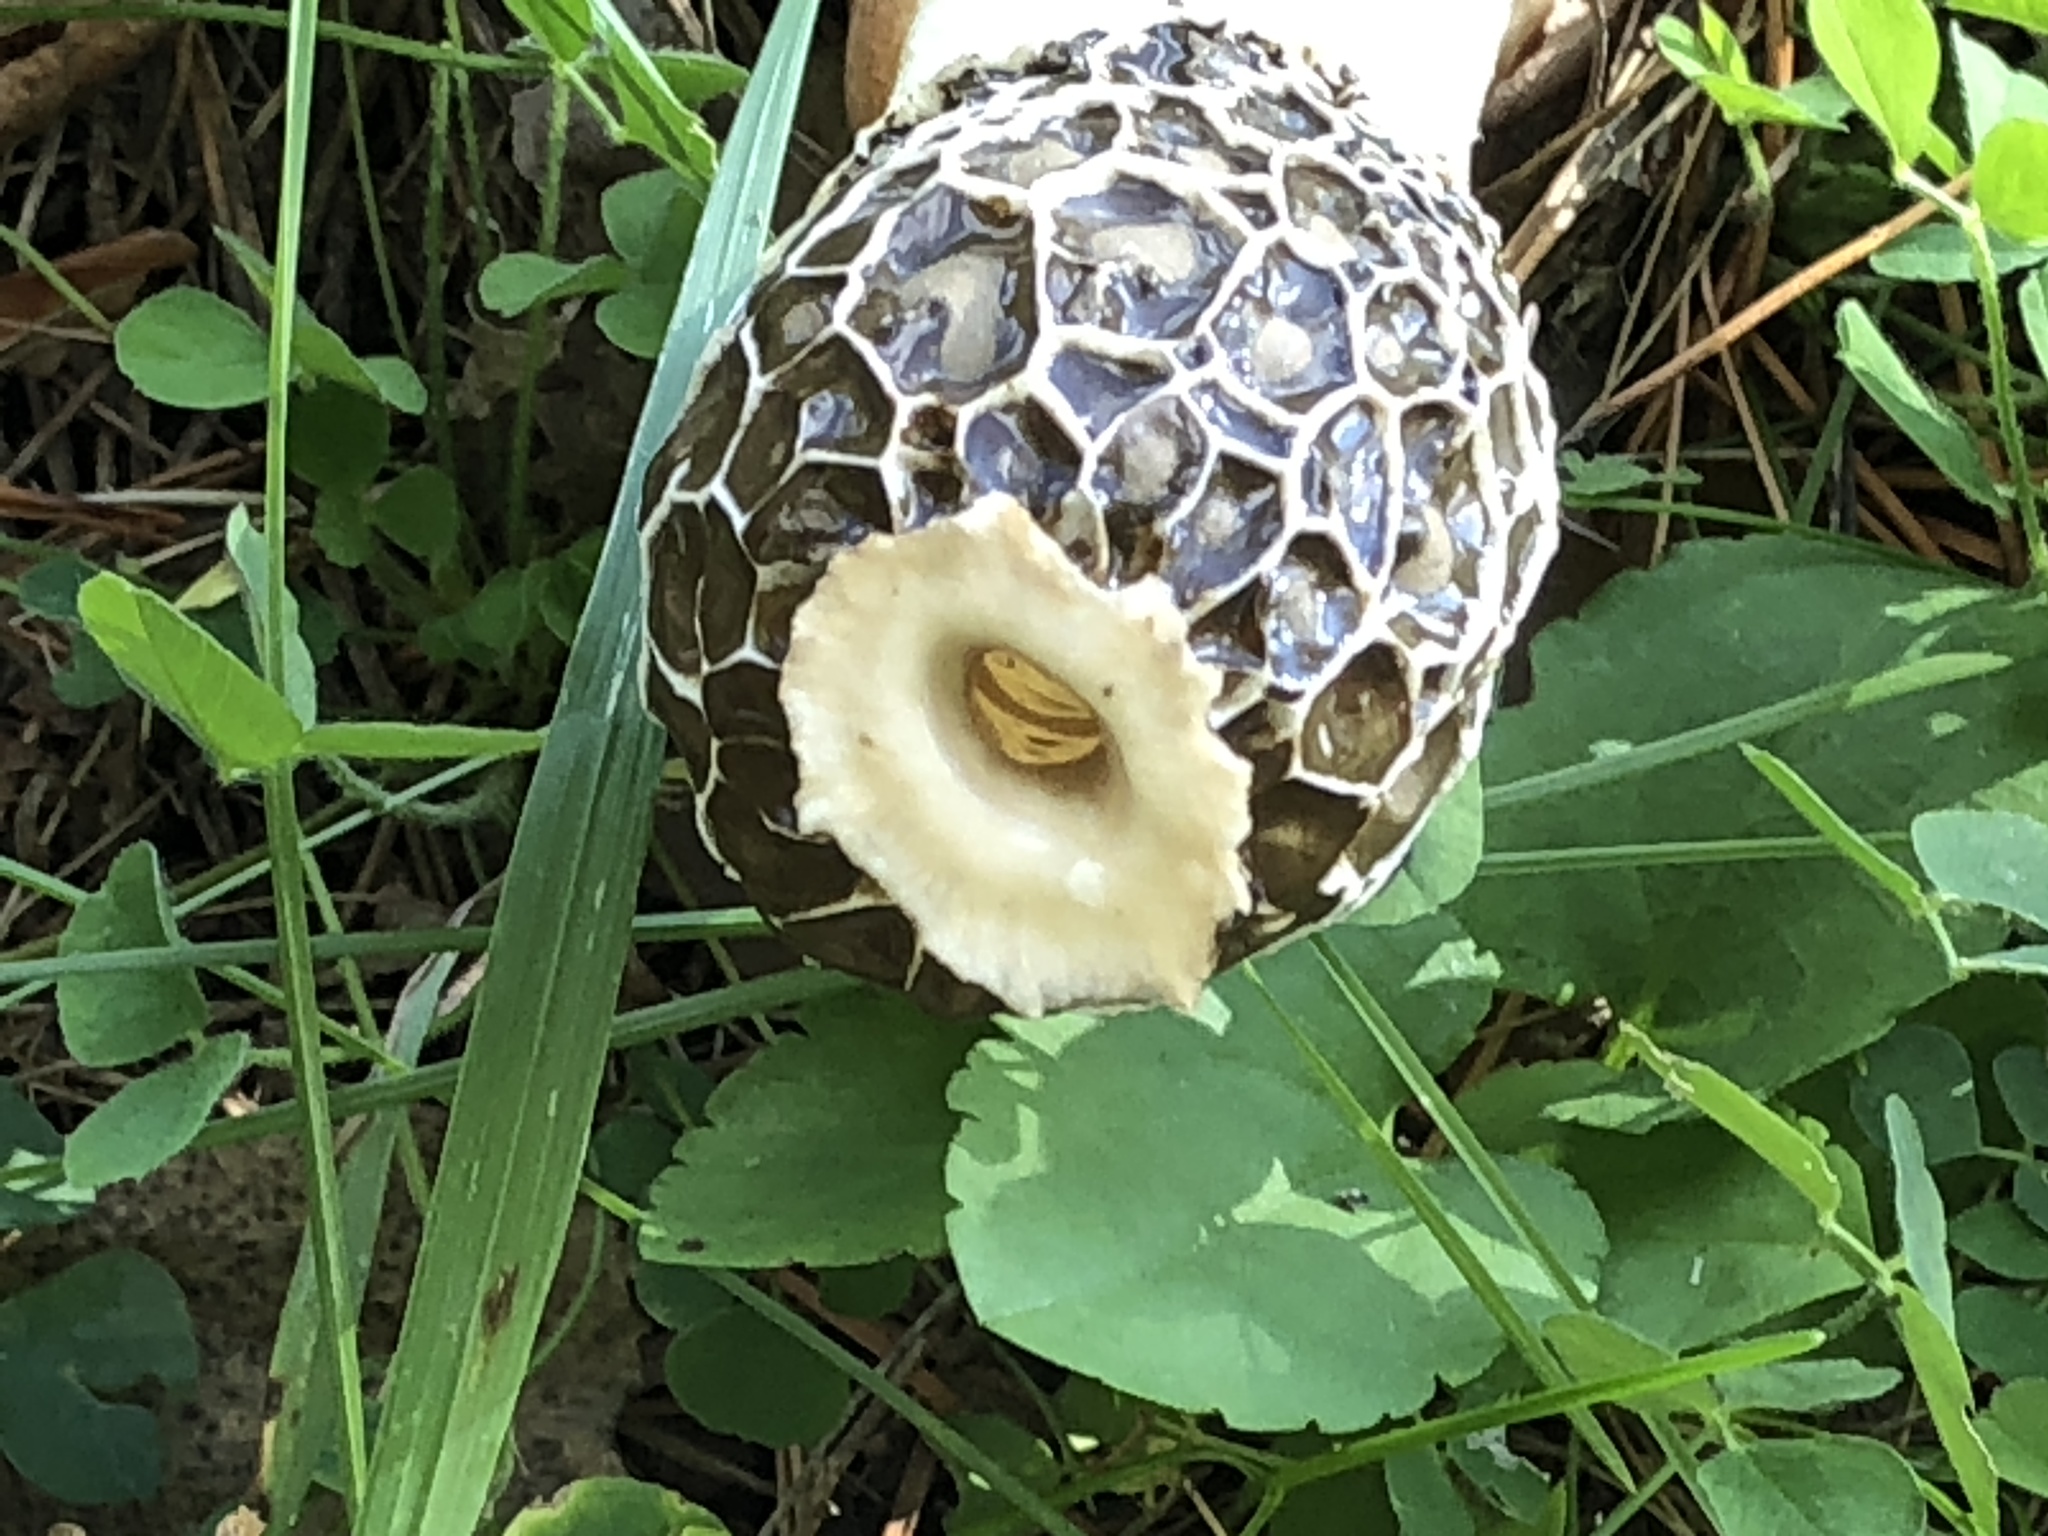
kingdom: Fungi
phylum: Basidiomycota
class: Agaricomycetes
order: Phallales
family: Phallaceae
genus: Phallus
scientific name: Phallus impudicus
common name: Common stinkhorn
